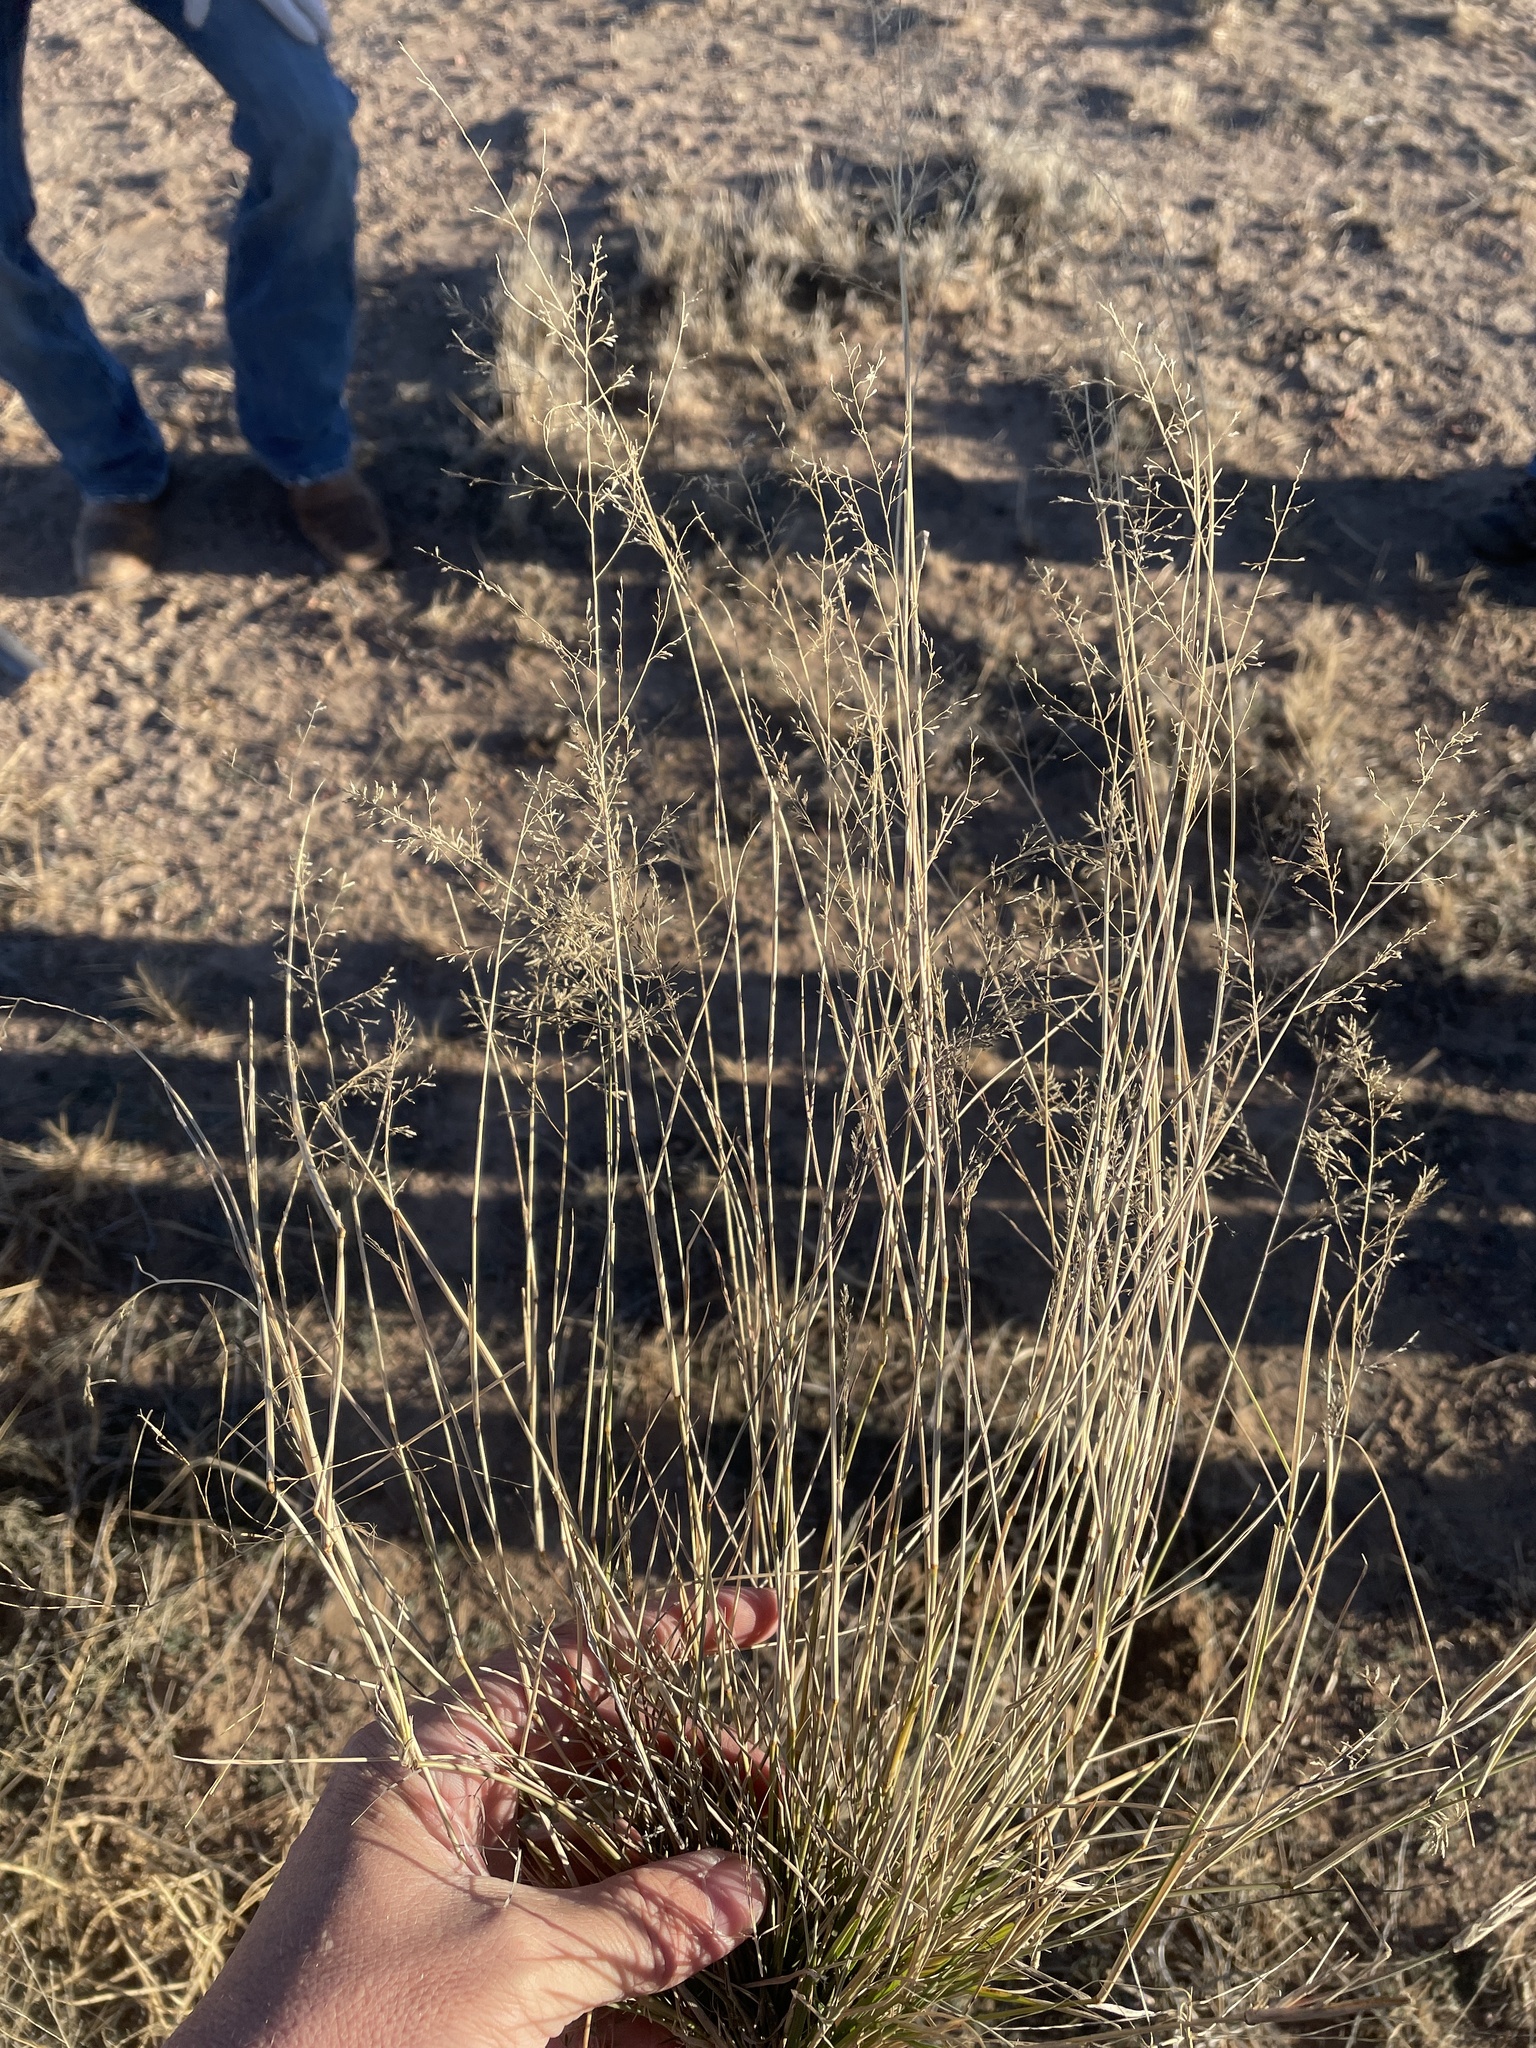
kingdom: Plantae
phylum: Tracheophyta
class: Liliopsida
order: Poales
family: Poaceae
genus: Eragrostis
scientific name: Eragrostis lehmanniana
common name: Lehmann lovegrass
